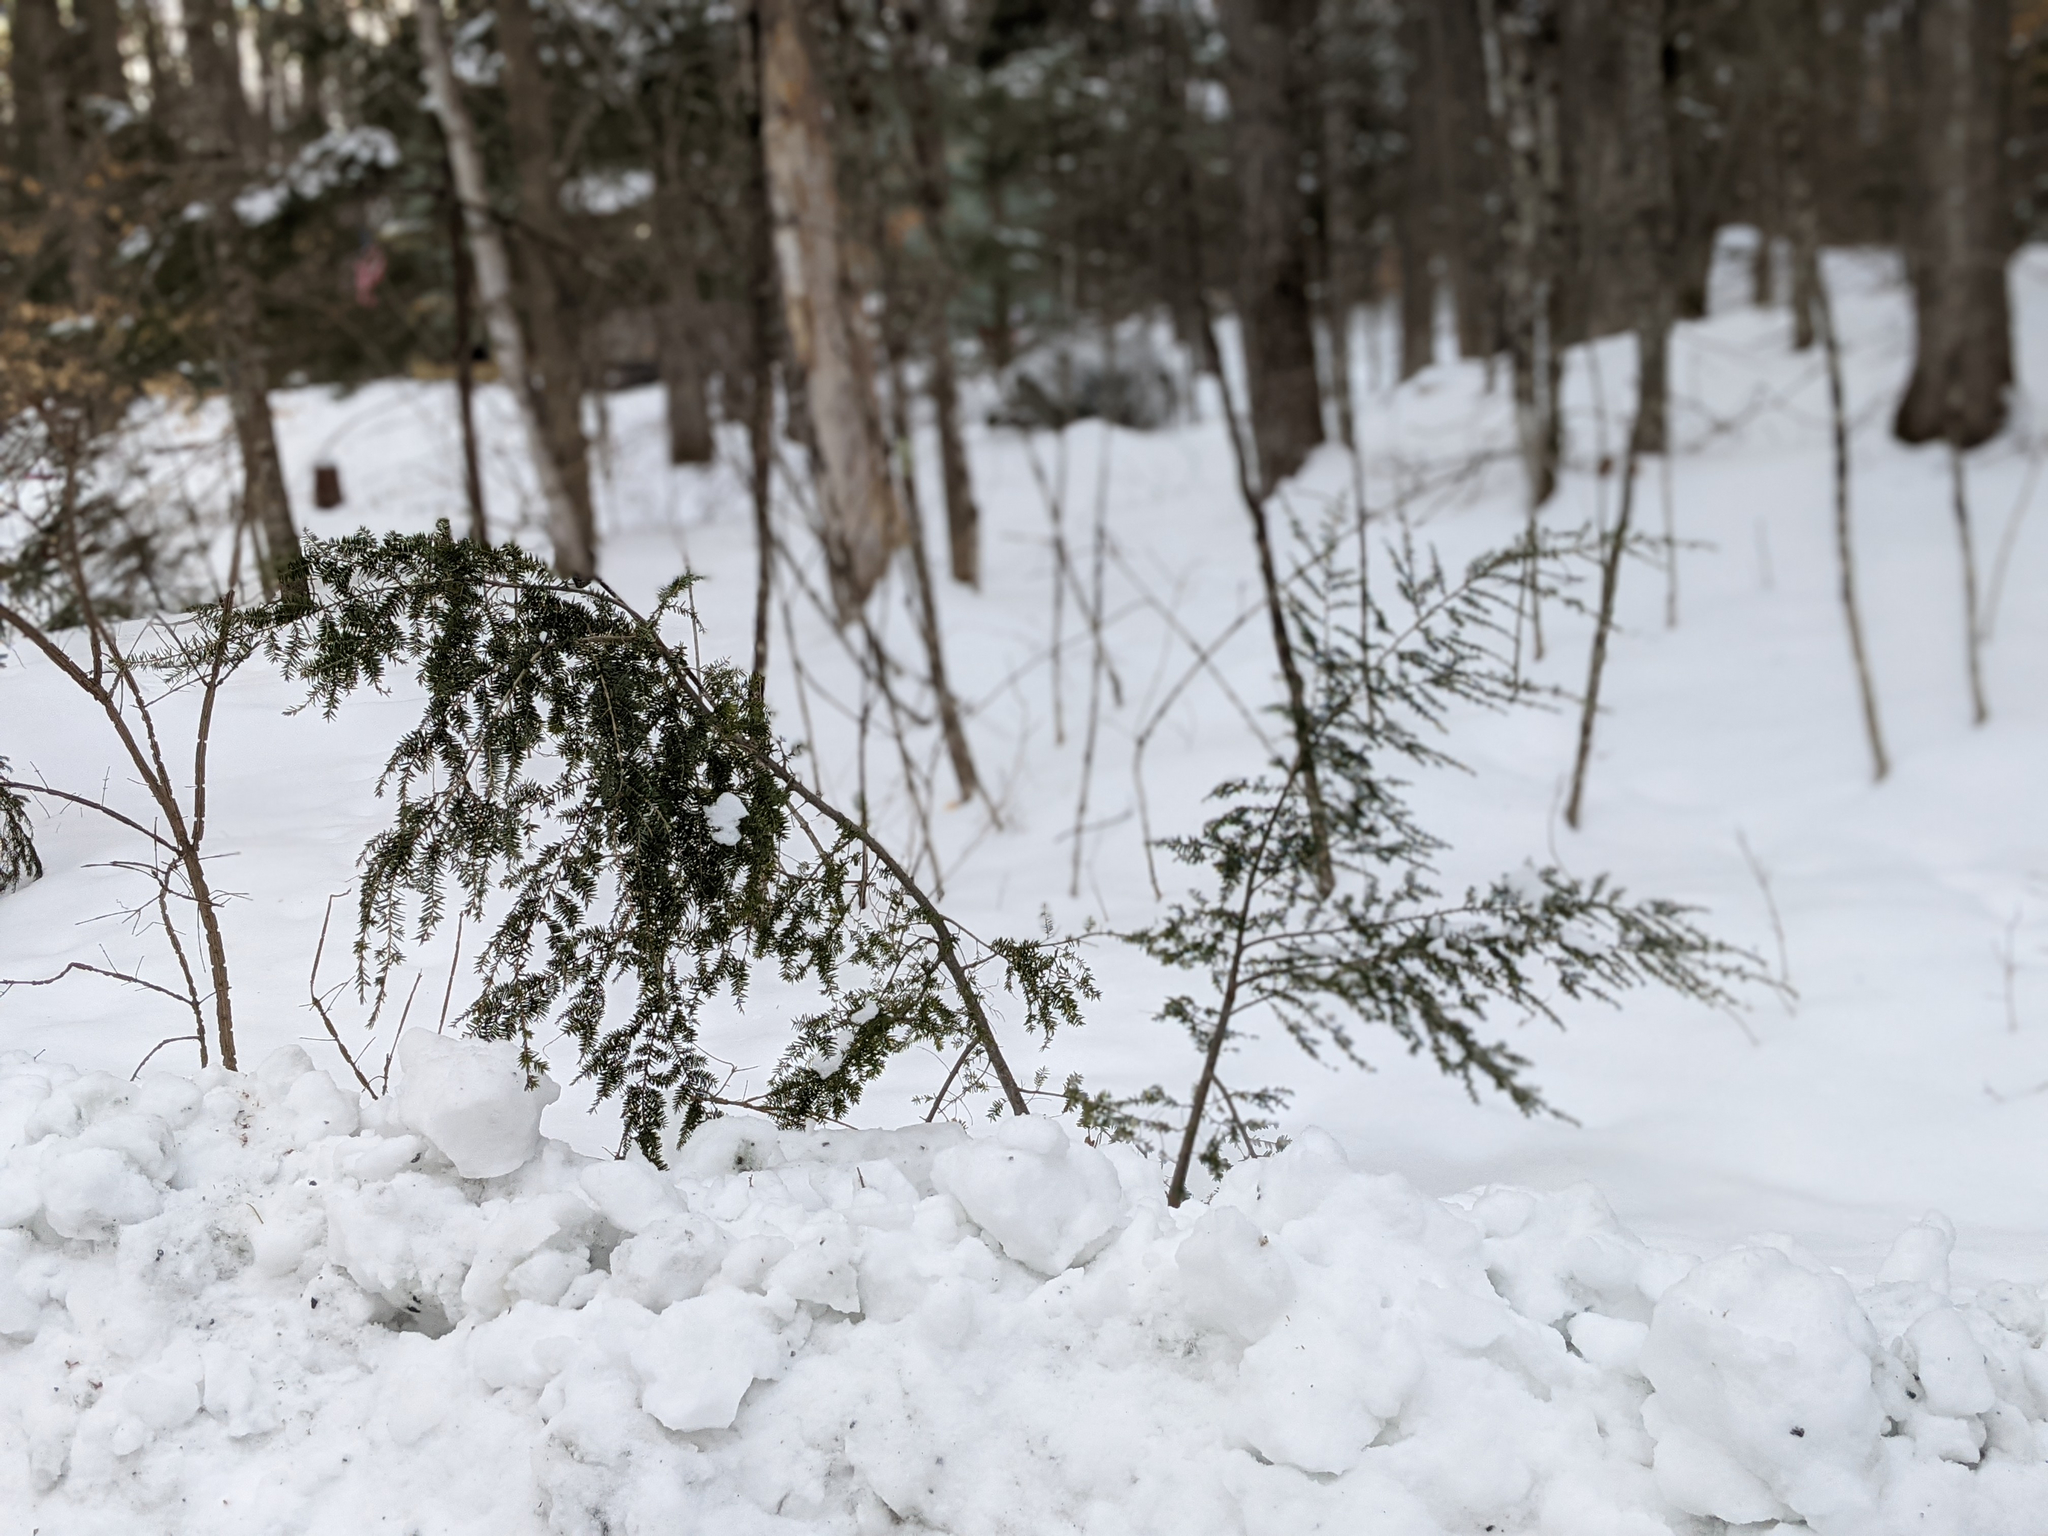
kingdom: Plantae
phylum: Tracheophyta
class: Pinopsida
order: Pinales
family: Pinaceae
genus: Tsuga
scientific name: Tsuga canadensis
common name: Eastern hemlock
